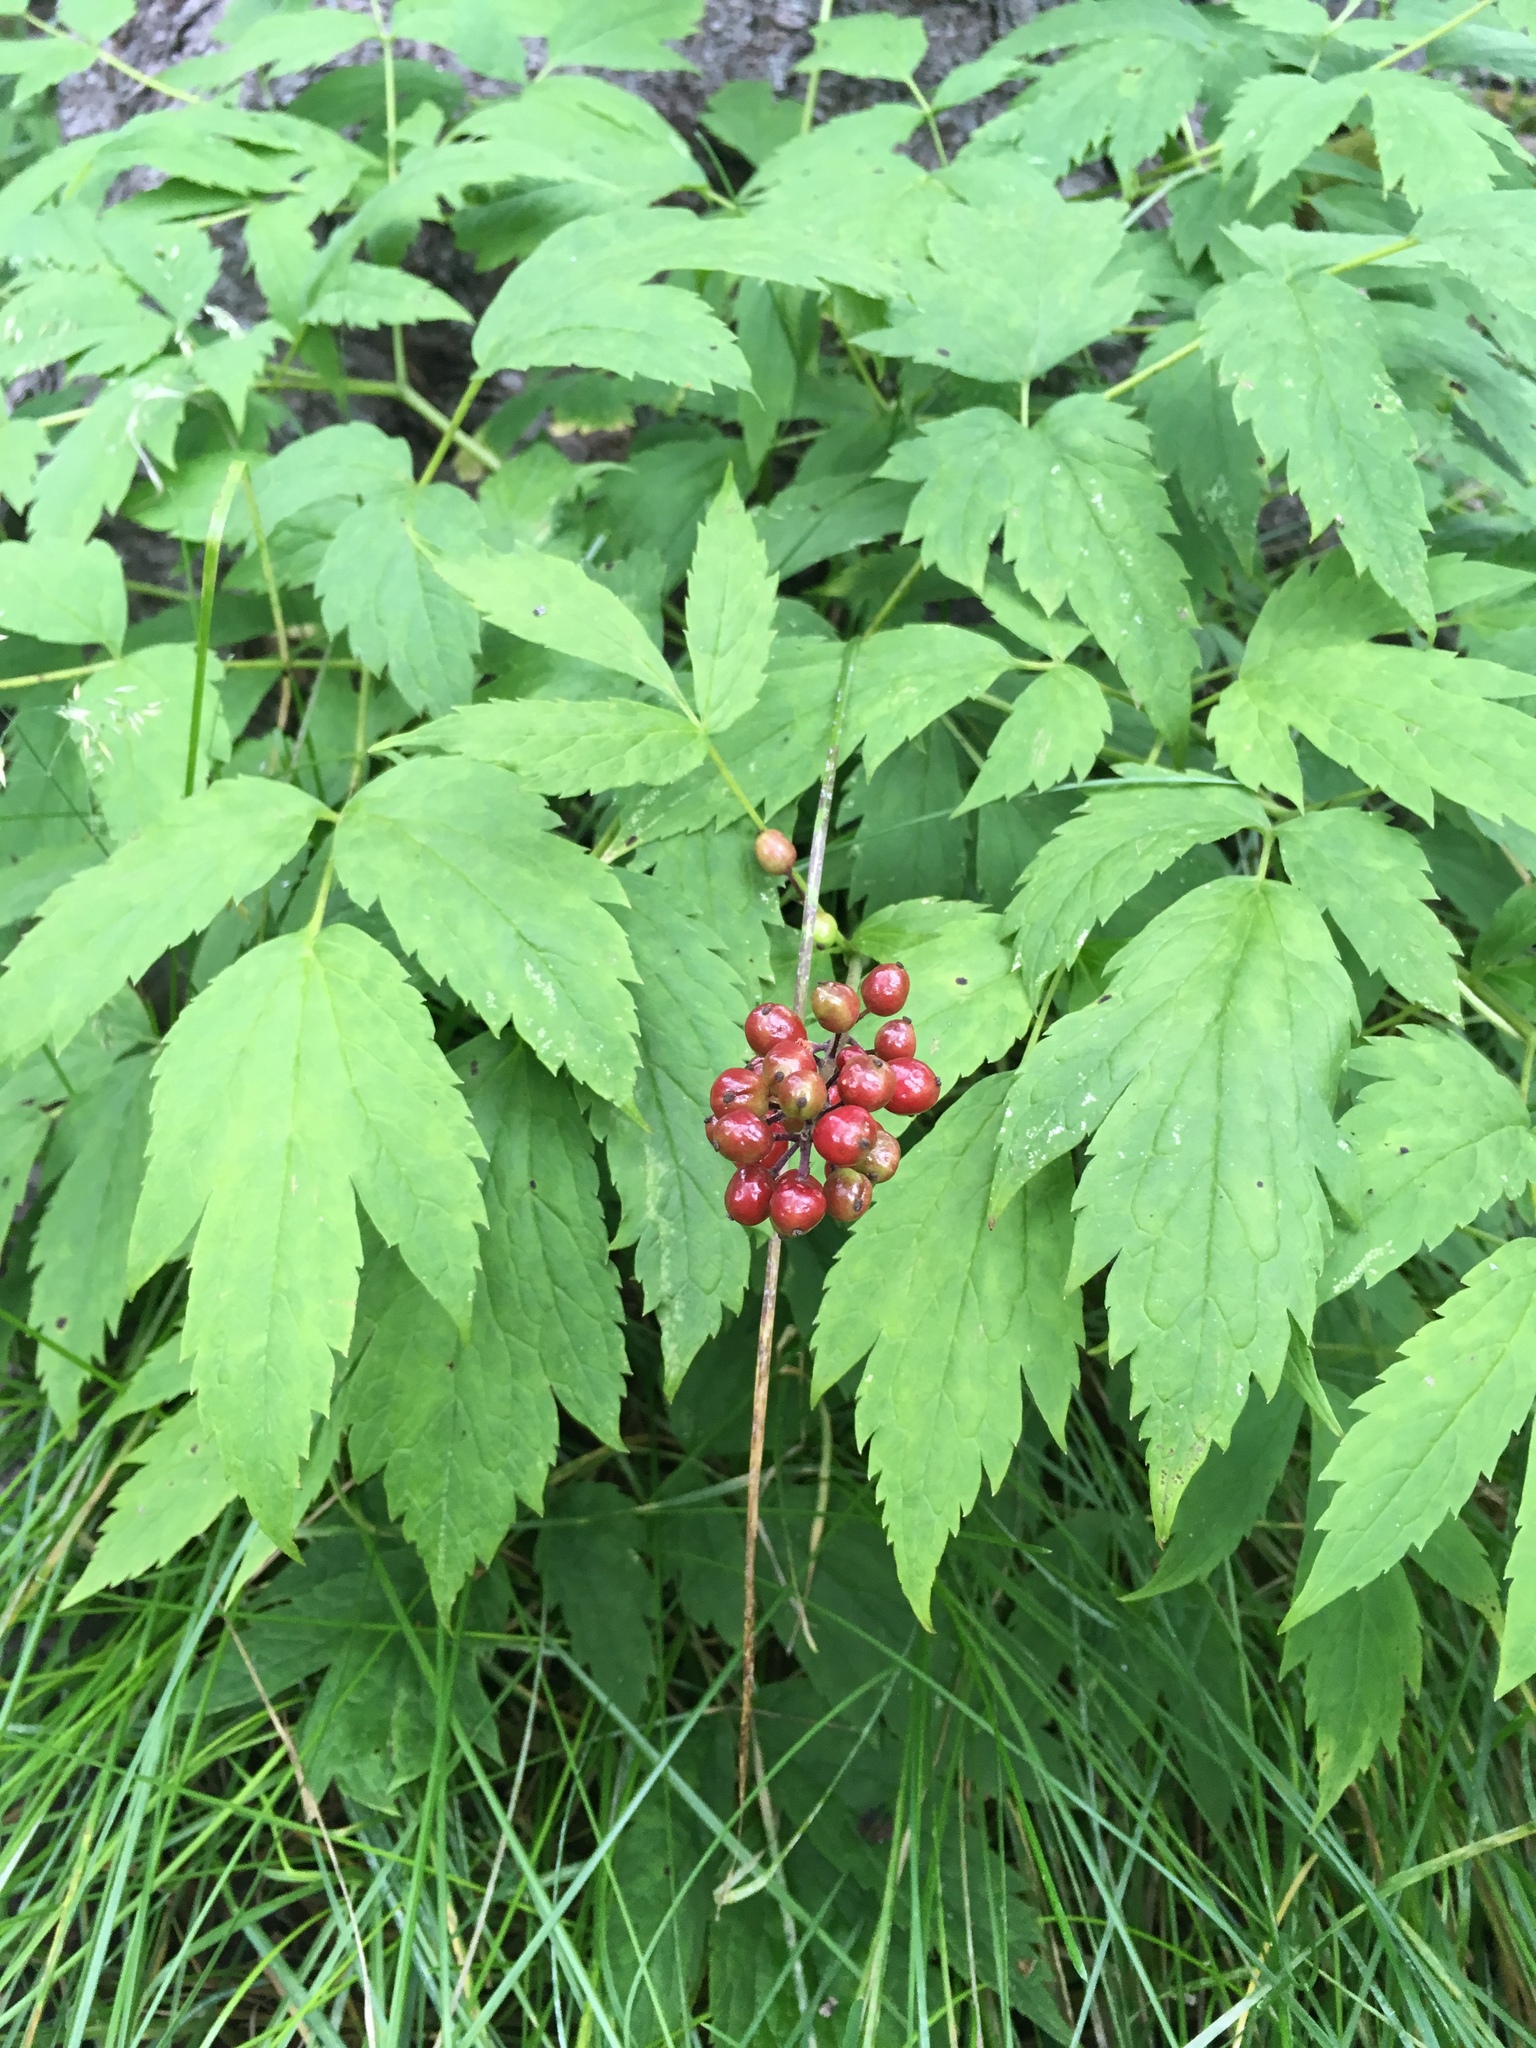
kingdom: Plantae
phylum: Tracheophyta
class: Magnoliopsida
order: Ranunculales
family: Ranunculaceae
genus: Actaea
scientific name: Actaea rubra
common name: Red baneberry
